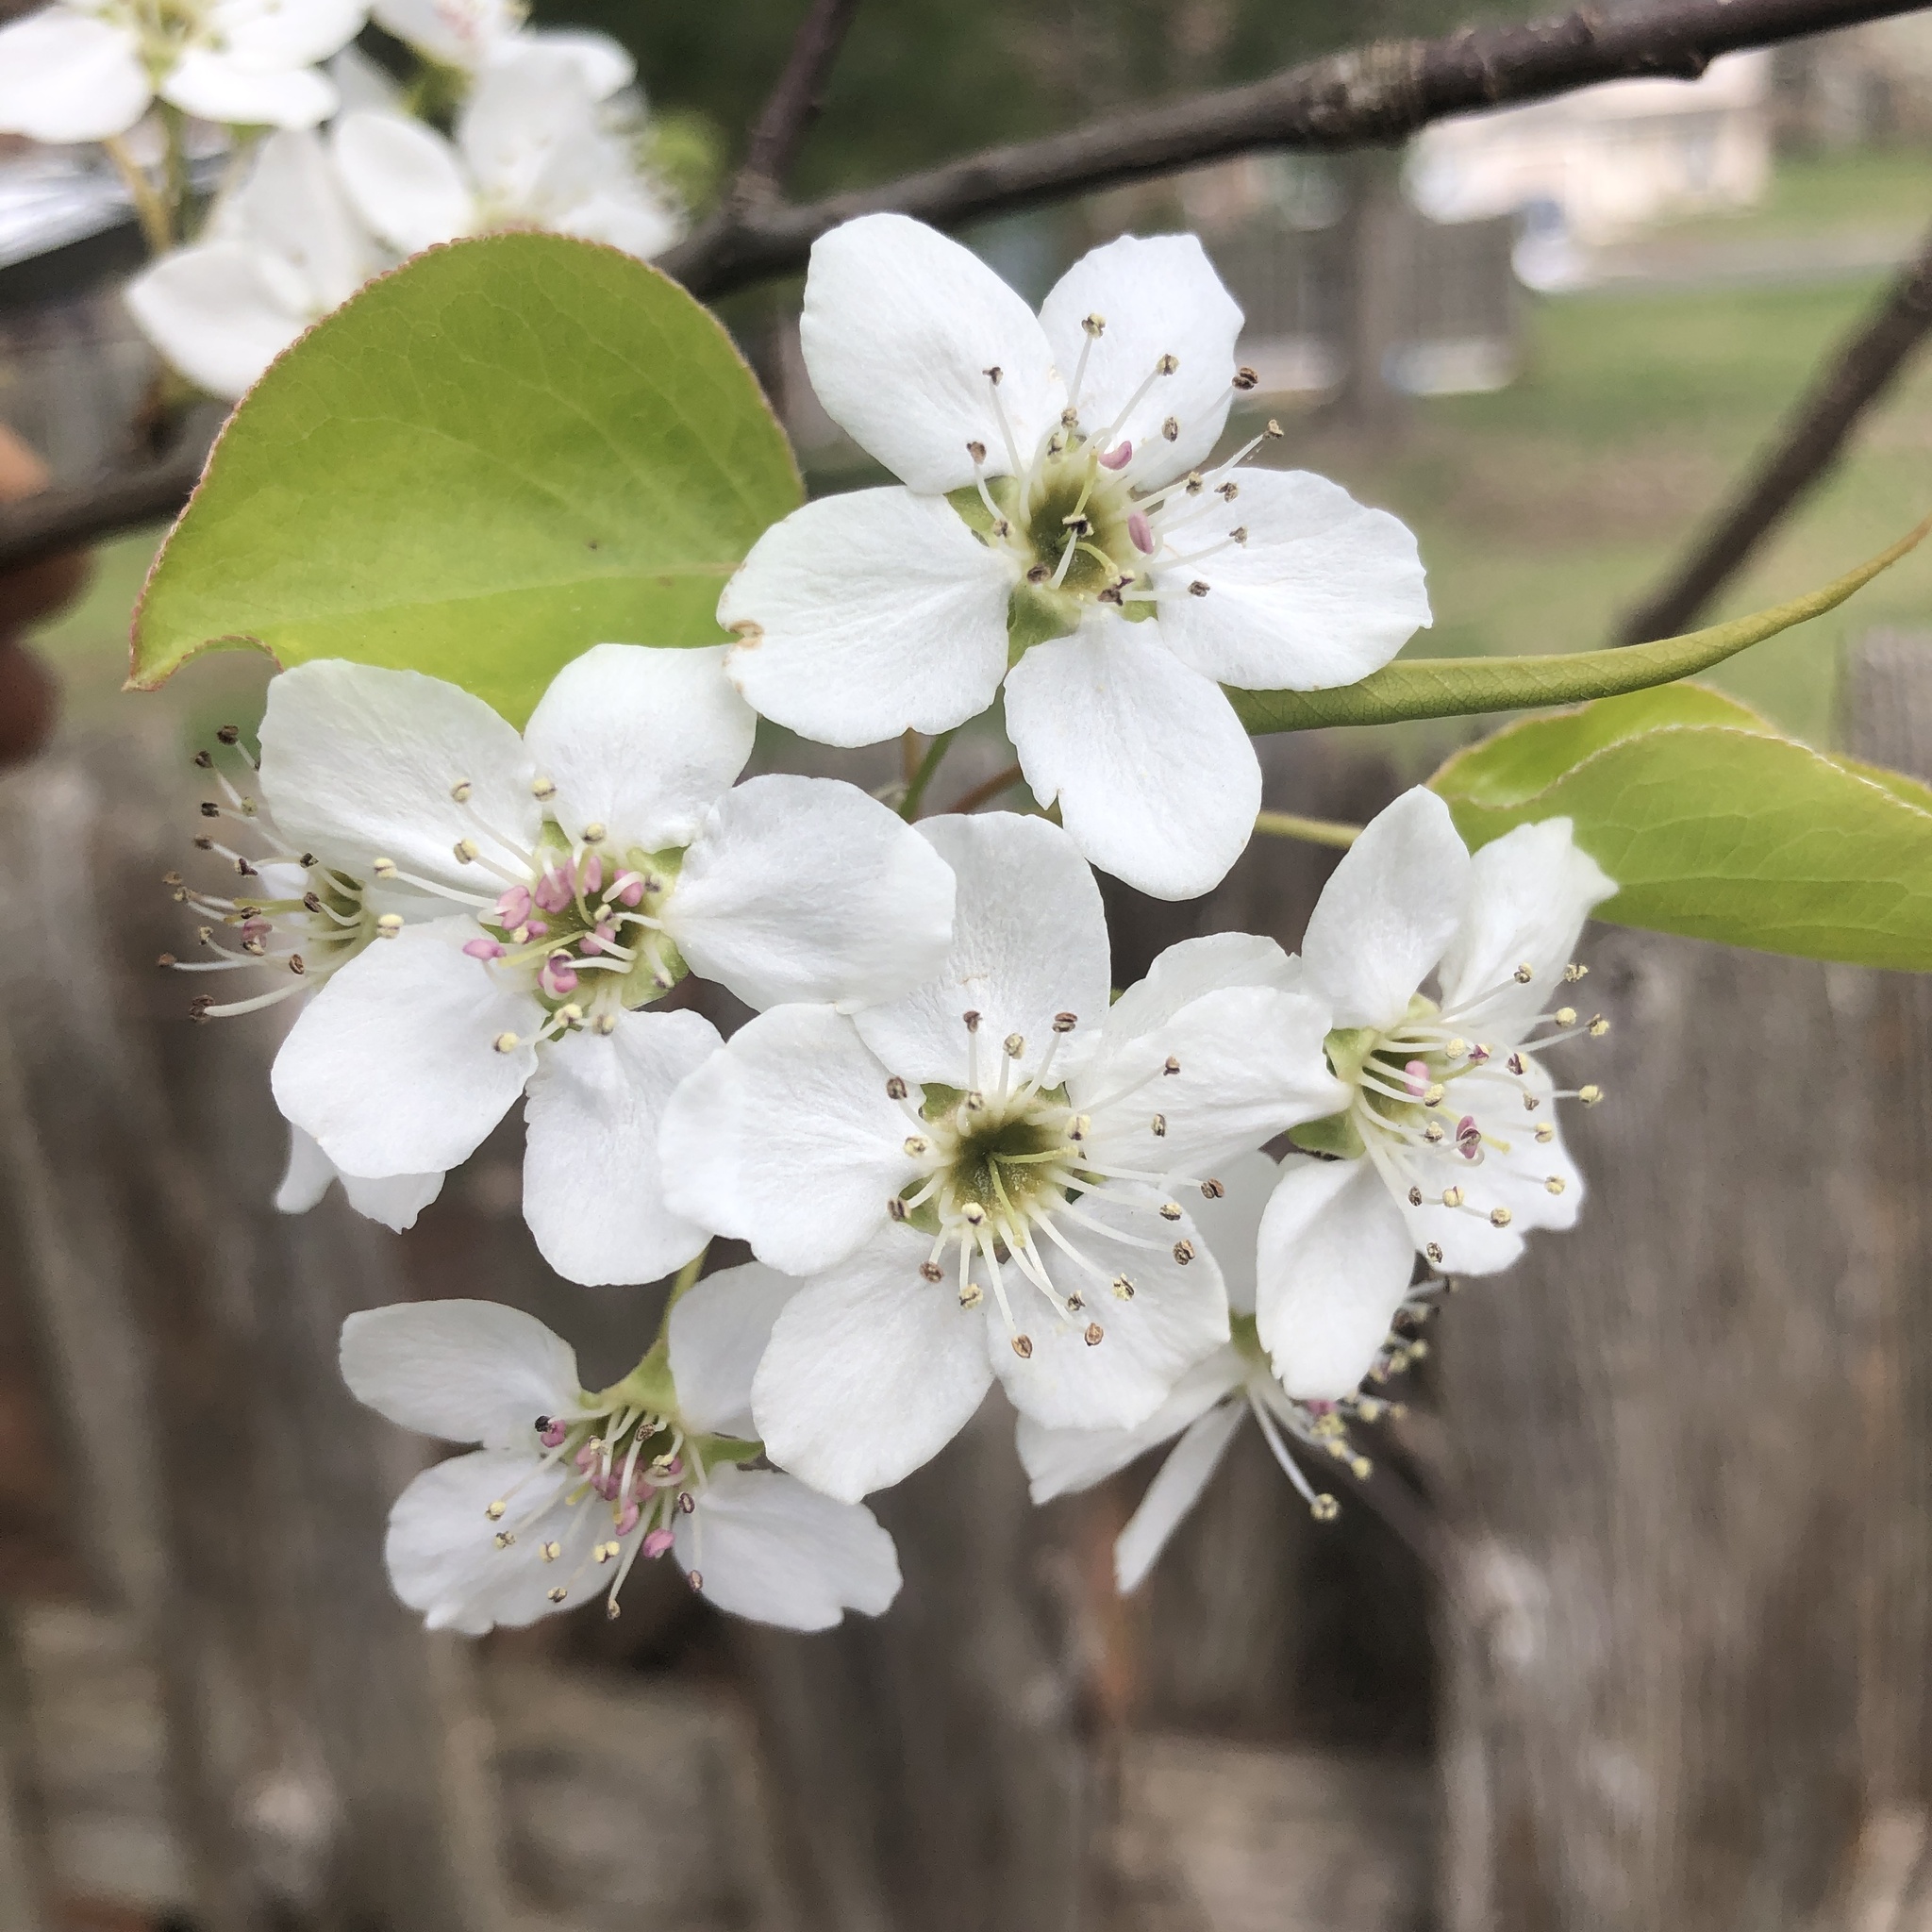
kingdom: Plantae
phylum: Tracheophyta
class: Magnoliopsida
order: Rosales
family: Rosaceae
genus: Pyrus
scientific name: Pyrus calleryana
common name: Callery pear
